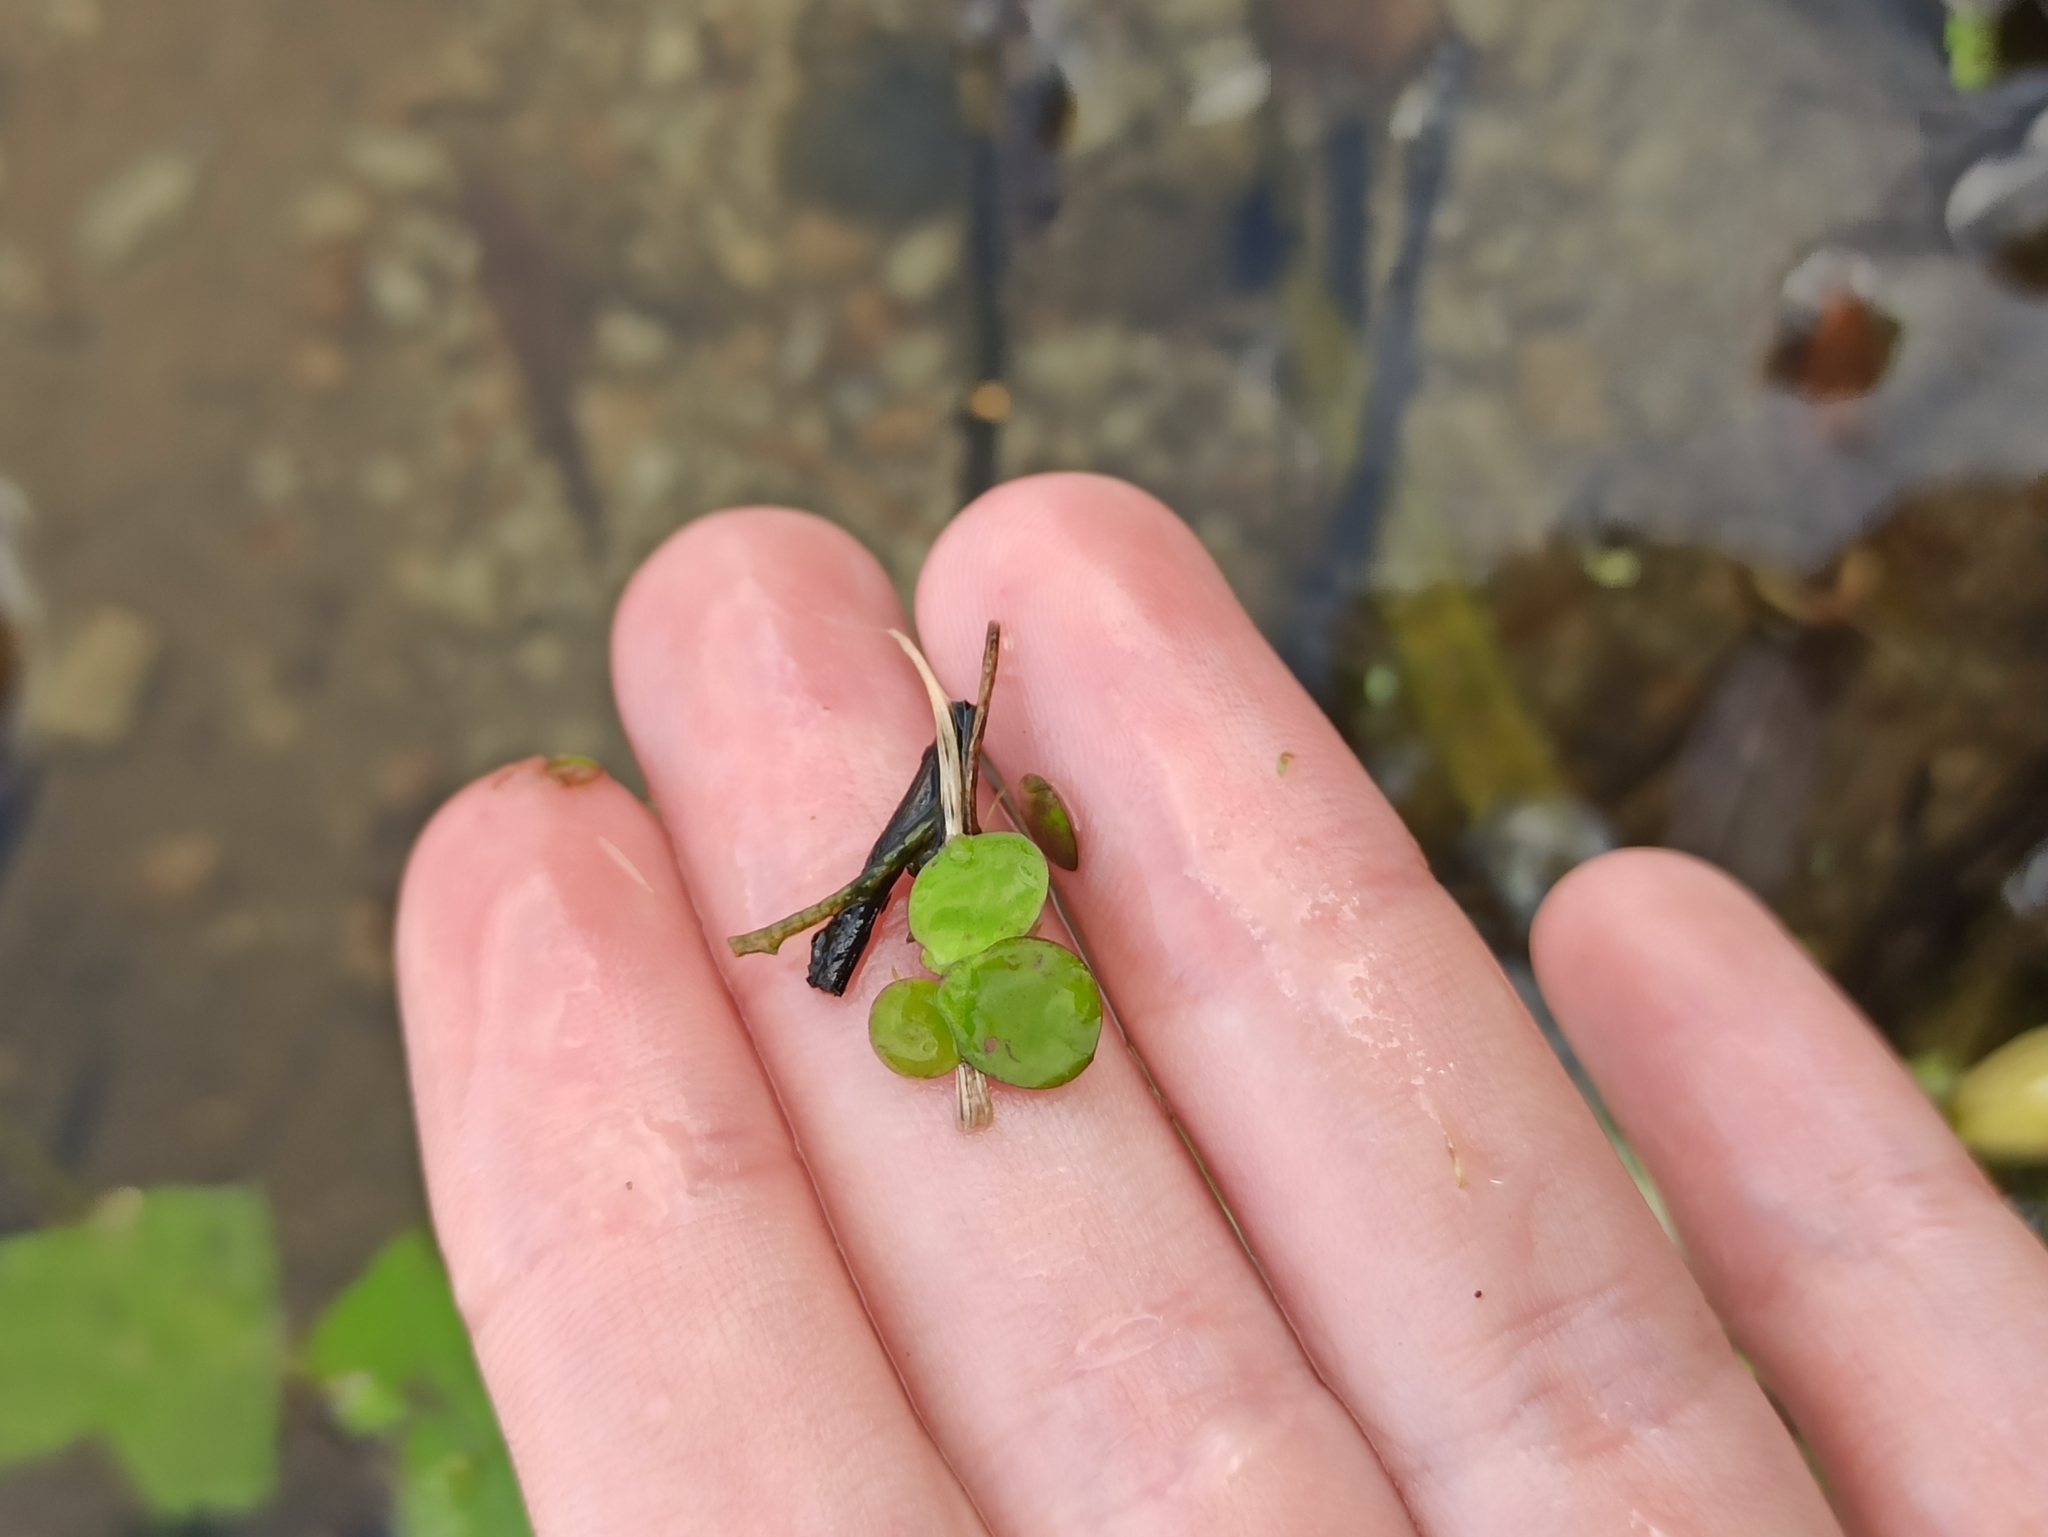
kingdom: Plantae
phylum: Tracheophyta
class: Liliopsida
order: Alismatales
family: Araceae
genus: Spirodela
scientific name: Spirodela polyrhiza
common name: Great duckweed
